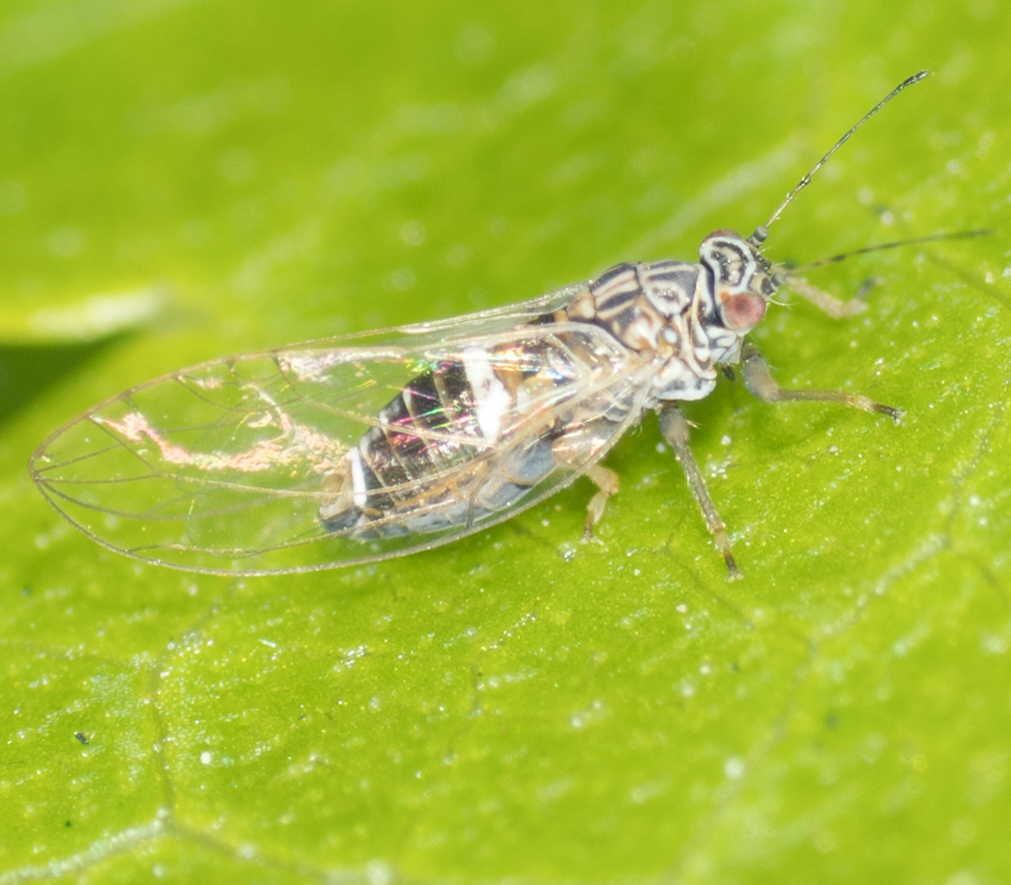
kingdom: Animalia
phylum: Arthropoda
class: Insecta
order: Hemiptera
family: Triozidae
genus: Bactericera
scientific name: Bactericera cockerelli
